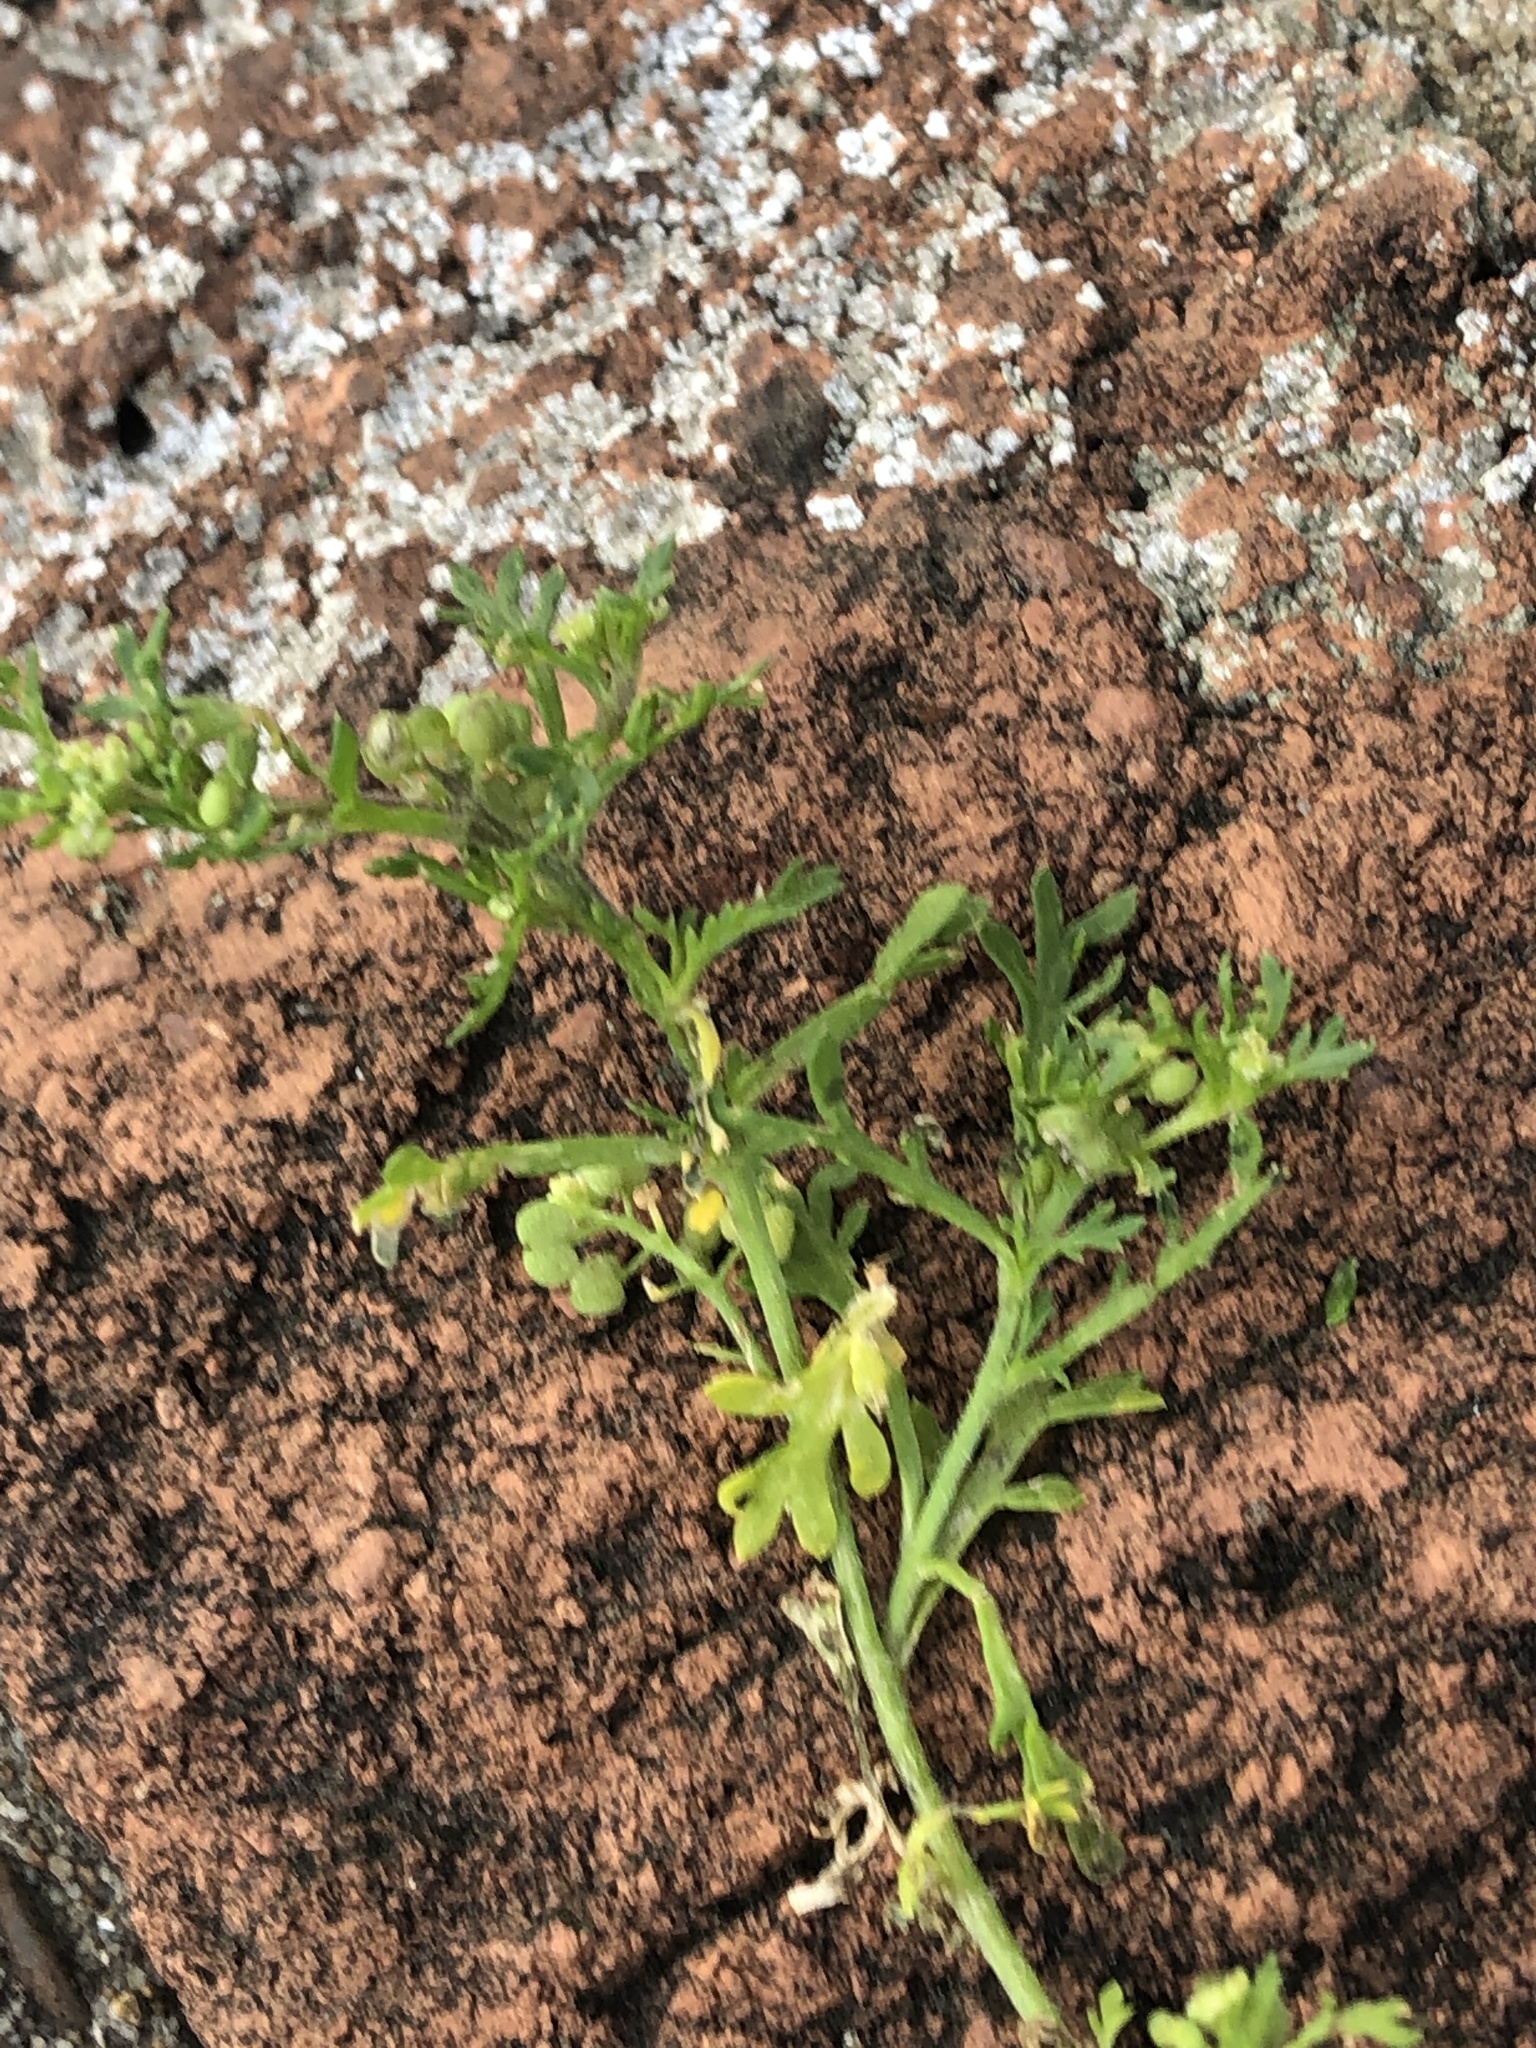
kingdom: Plantae
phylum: Tracheophyta
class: Magnoliopsida
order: Brassicales
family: Brassicaceae
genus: Lepidium
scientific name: Lepidium didymum
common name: Lesser swinecress
